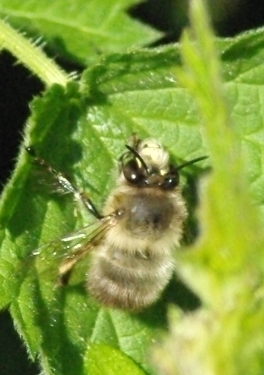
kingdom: Animalia
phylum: Arthropoda
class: Insecta
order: Hymenoptera
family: Apidae
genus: Anthophora
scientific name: Anthophora plumipes
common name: Hairy-footed flower bee
